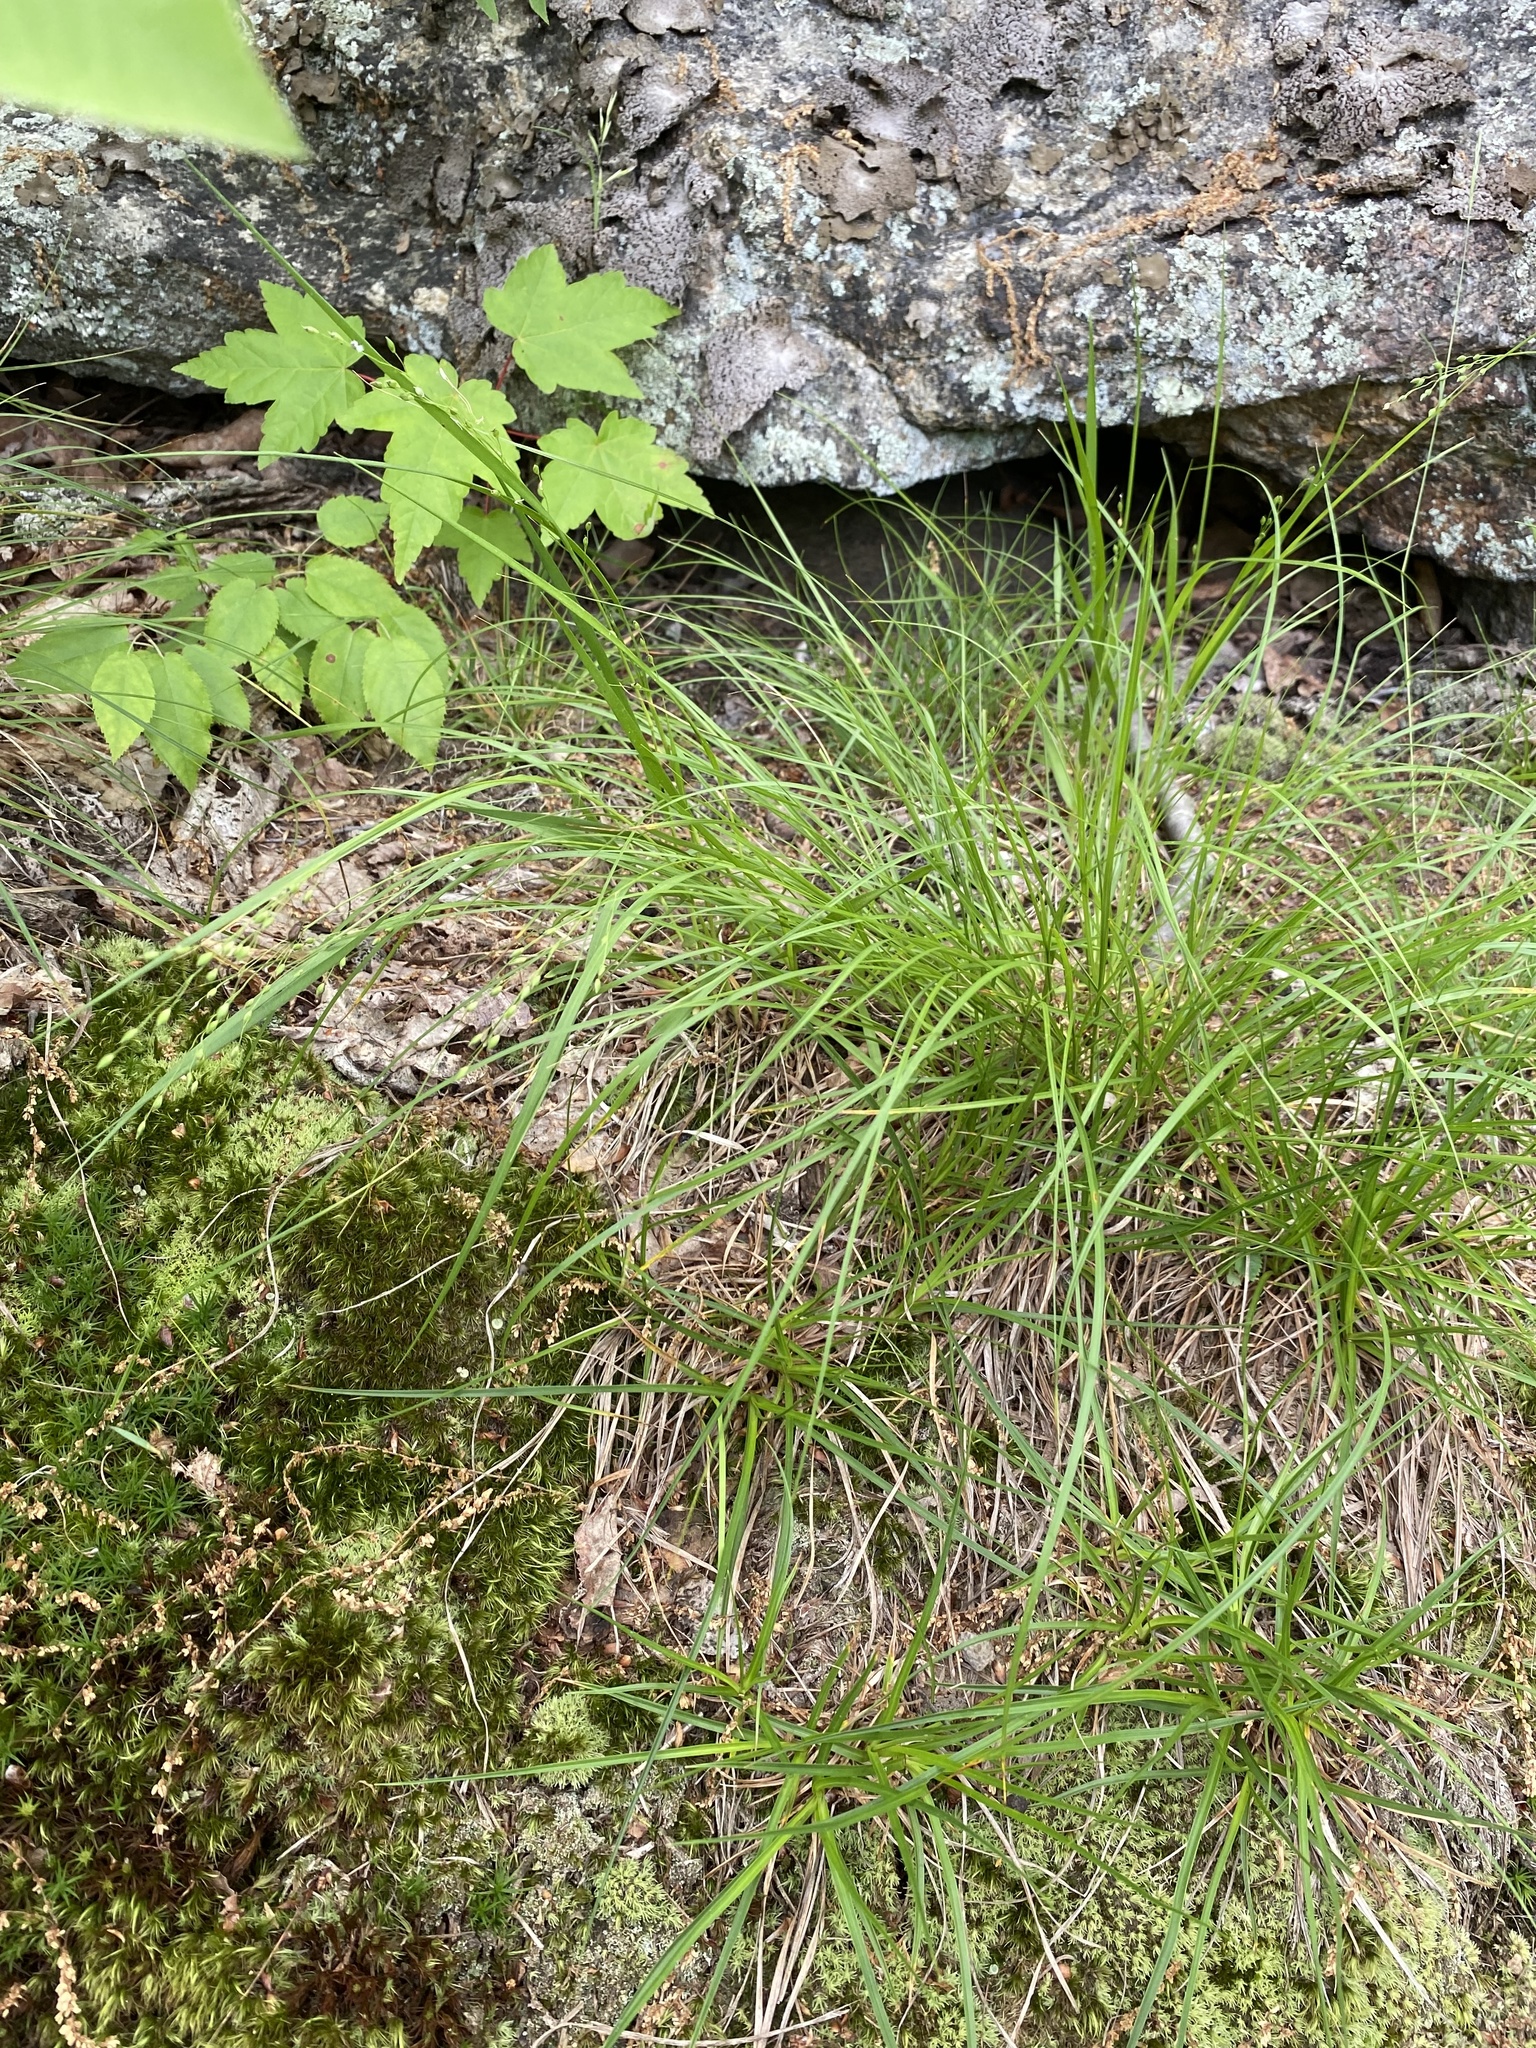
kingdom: Plantae
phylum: Tracheophyta
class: Liliopsida
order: Poales
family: Poaceae
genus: Dichanthelium
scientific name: Dichanthelium depauperatum
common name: Depauperate panicgrass
